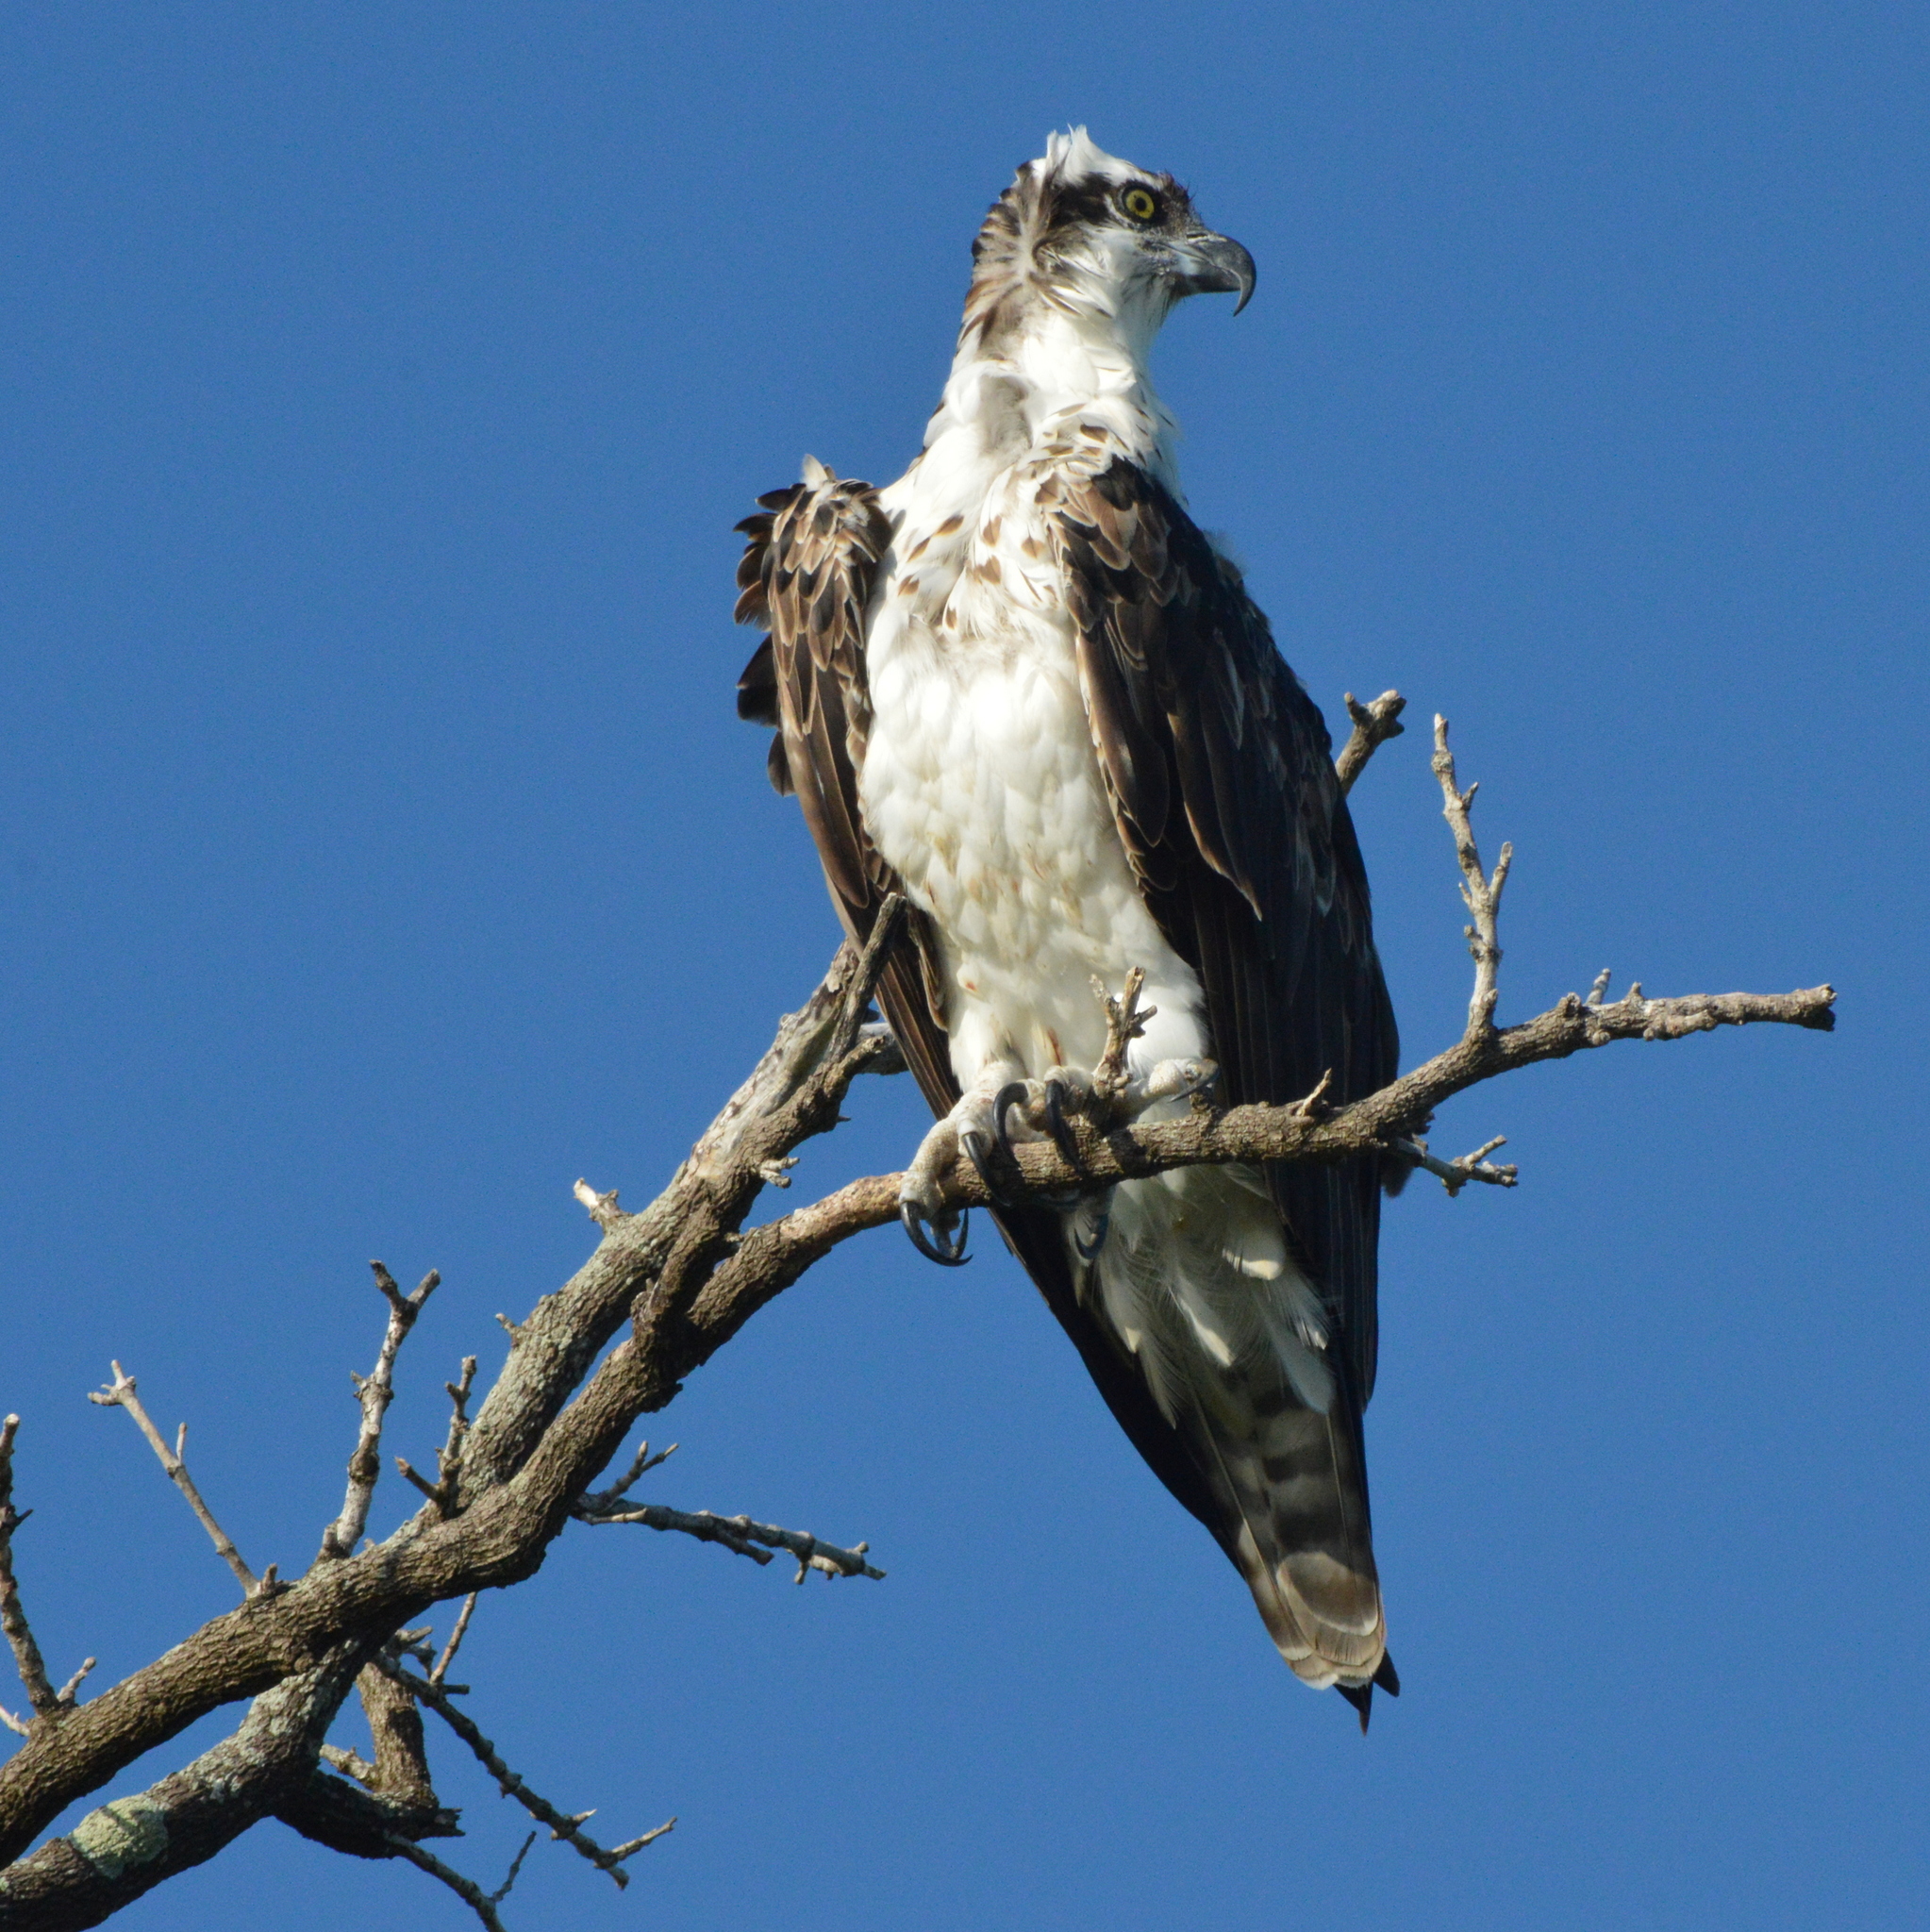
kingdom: Animalia
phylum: Chordata
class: Aves
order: Accipitriformes
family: Pandionidae
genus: Pandion
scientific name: Pandion haliaetus
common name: Osprey
